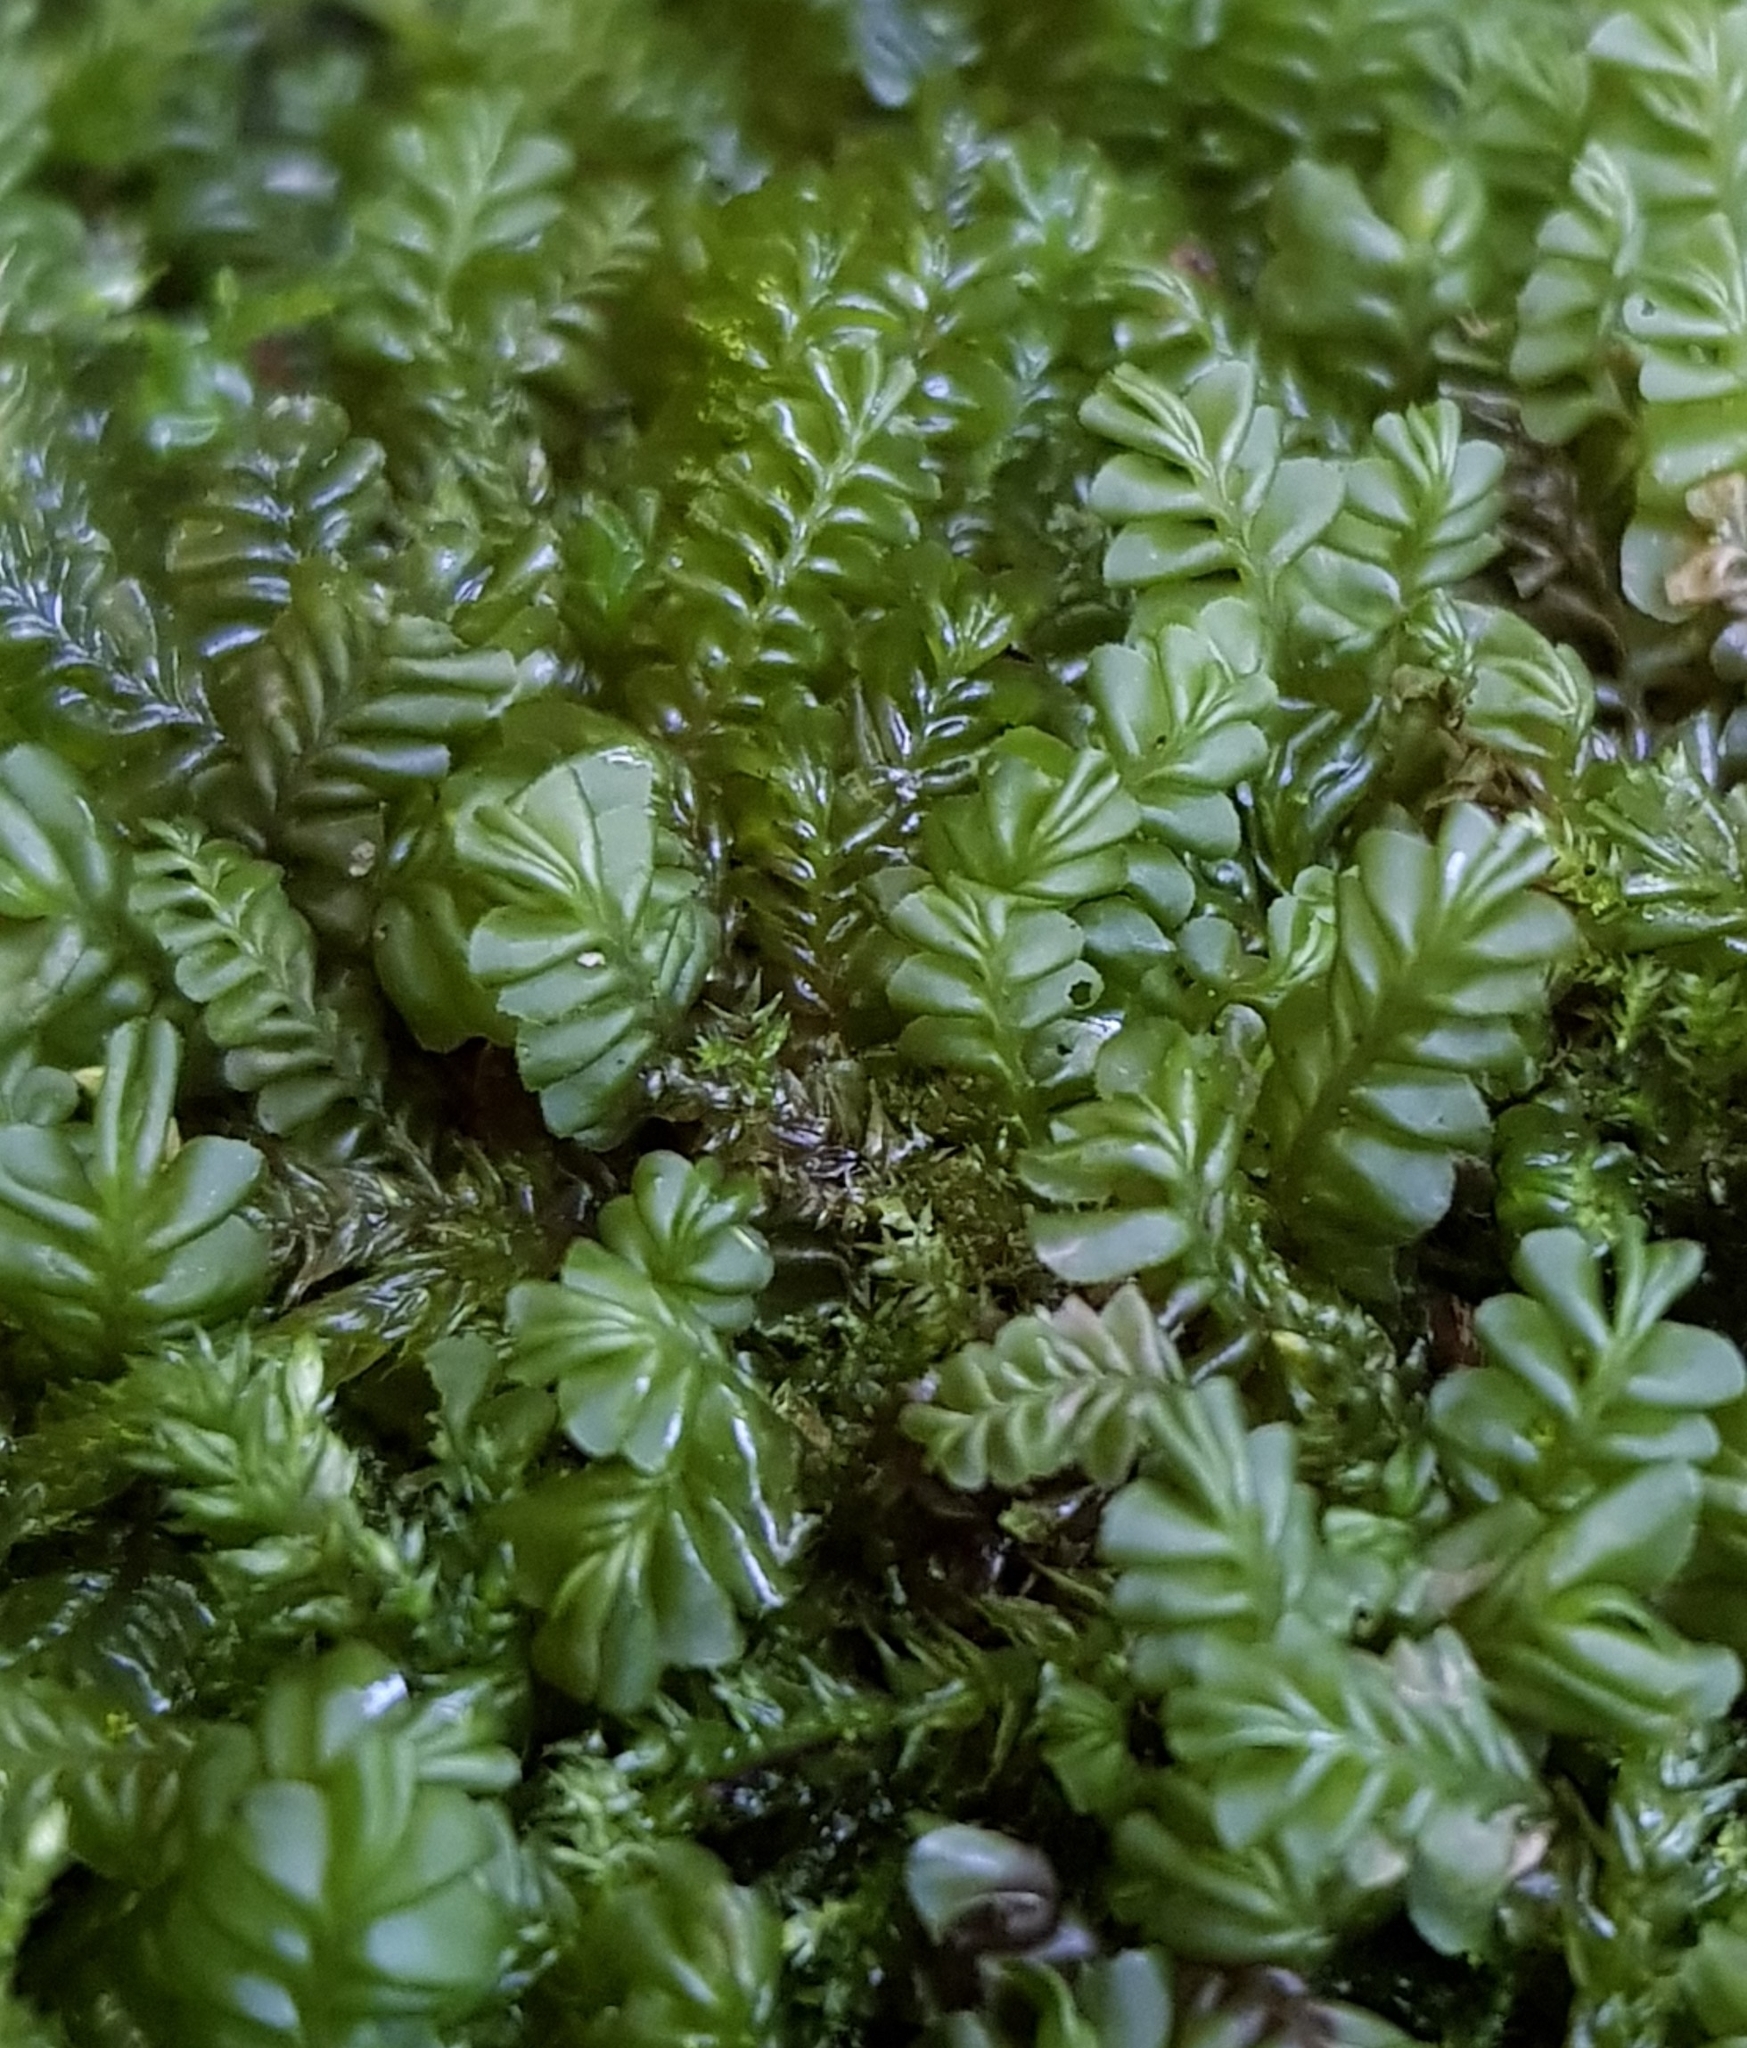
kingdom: Plantae
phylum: Marchantiophyta
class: Jungermanniopsida
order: Jungermanniales
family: Plagiochilaceae
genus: Plagiochila
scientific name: Plagiochila porelloides
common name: Lesser featherwort
